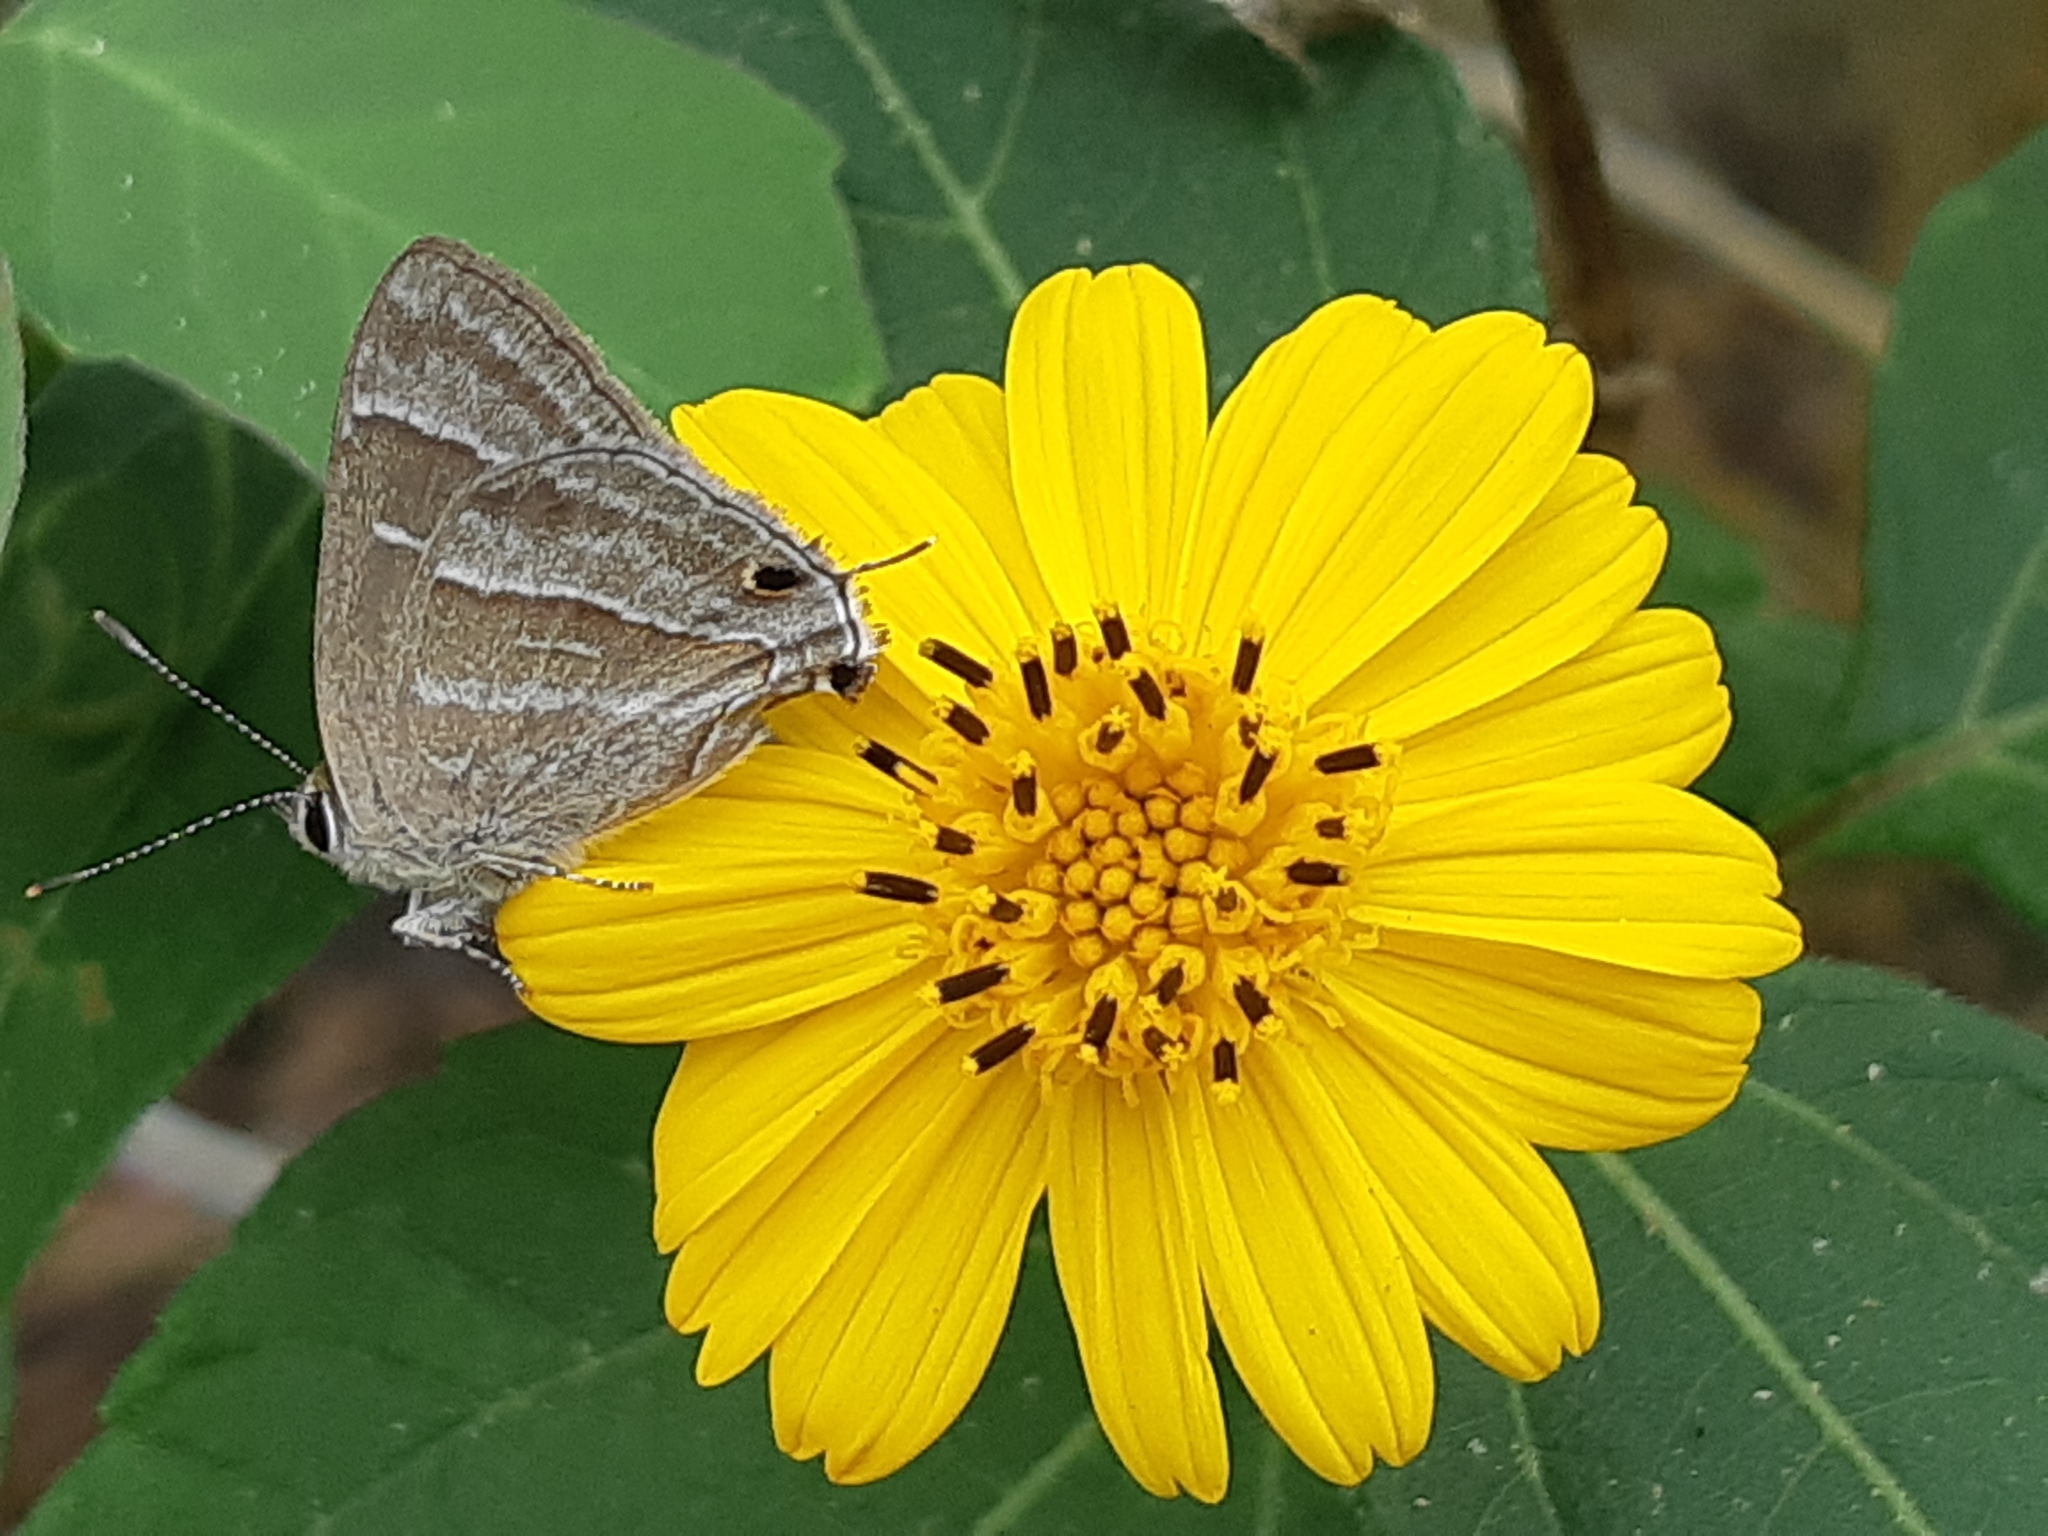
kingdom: Animalia
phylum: Arthropoda
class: Insecta
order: Lepidoptera
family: Lycaenidae
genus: Strymon
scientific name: Strymon
